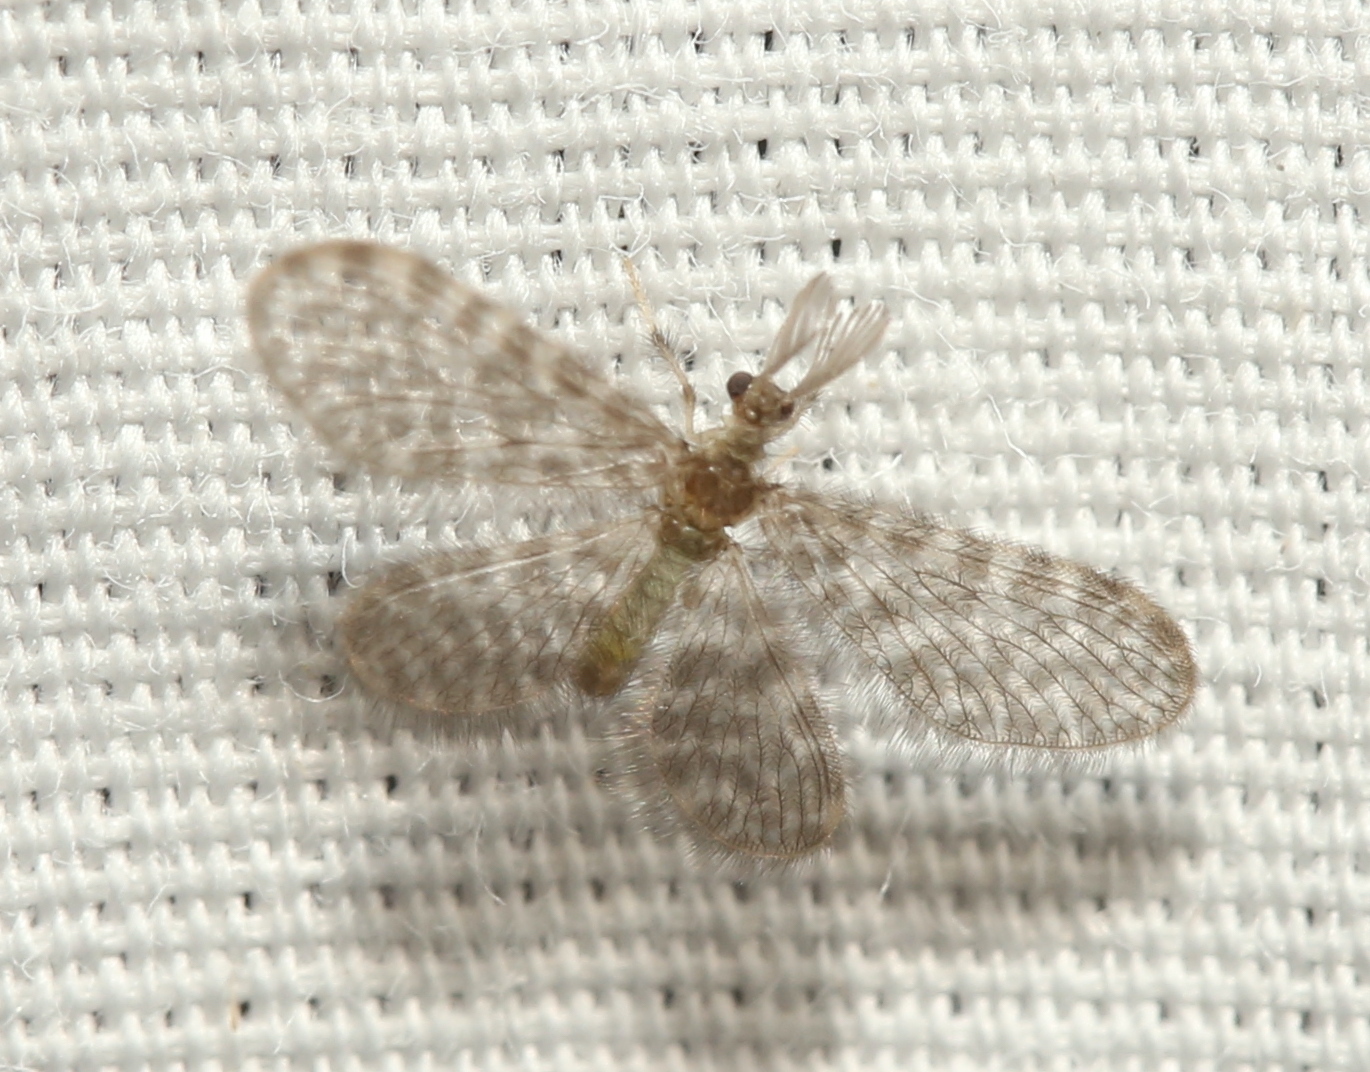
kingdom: Animalia
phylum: Arthropoda
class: Insecta
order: Neuroptera
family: Dilaridae
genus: Nallachius
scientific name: Nallachius americanus
